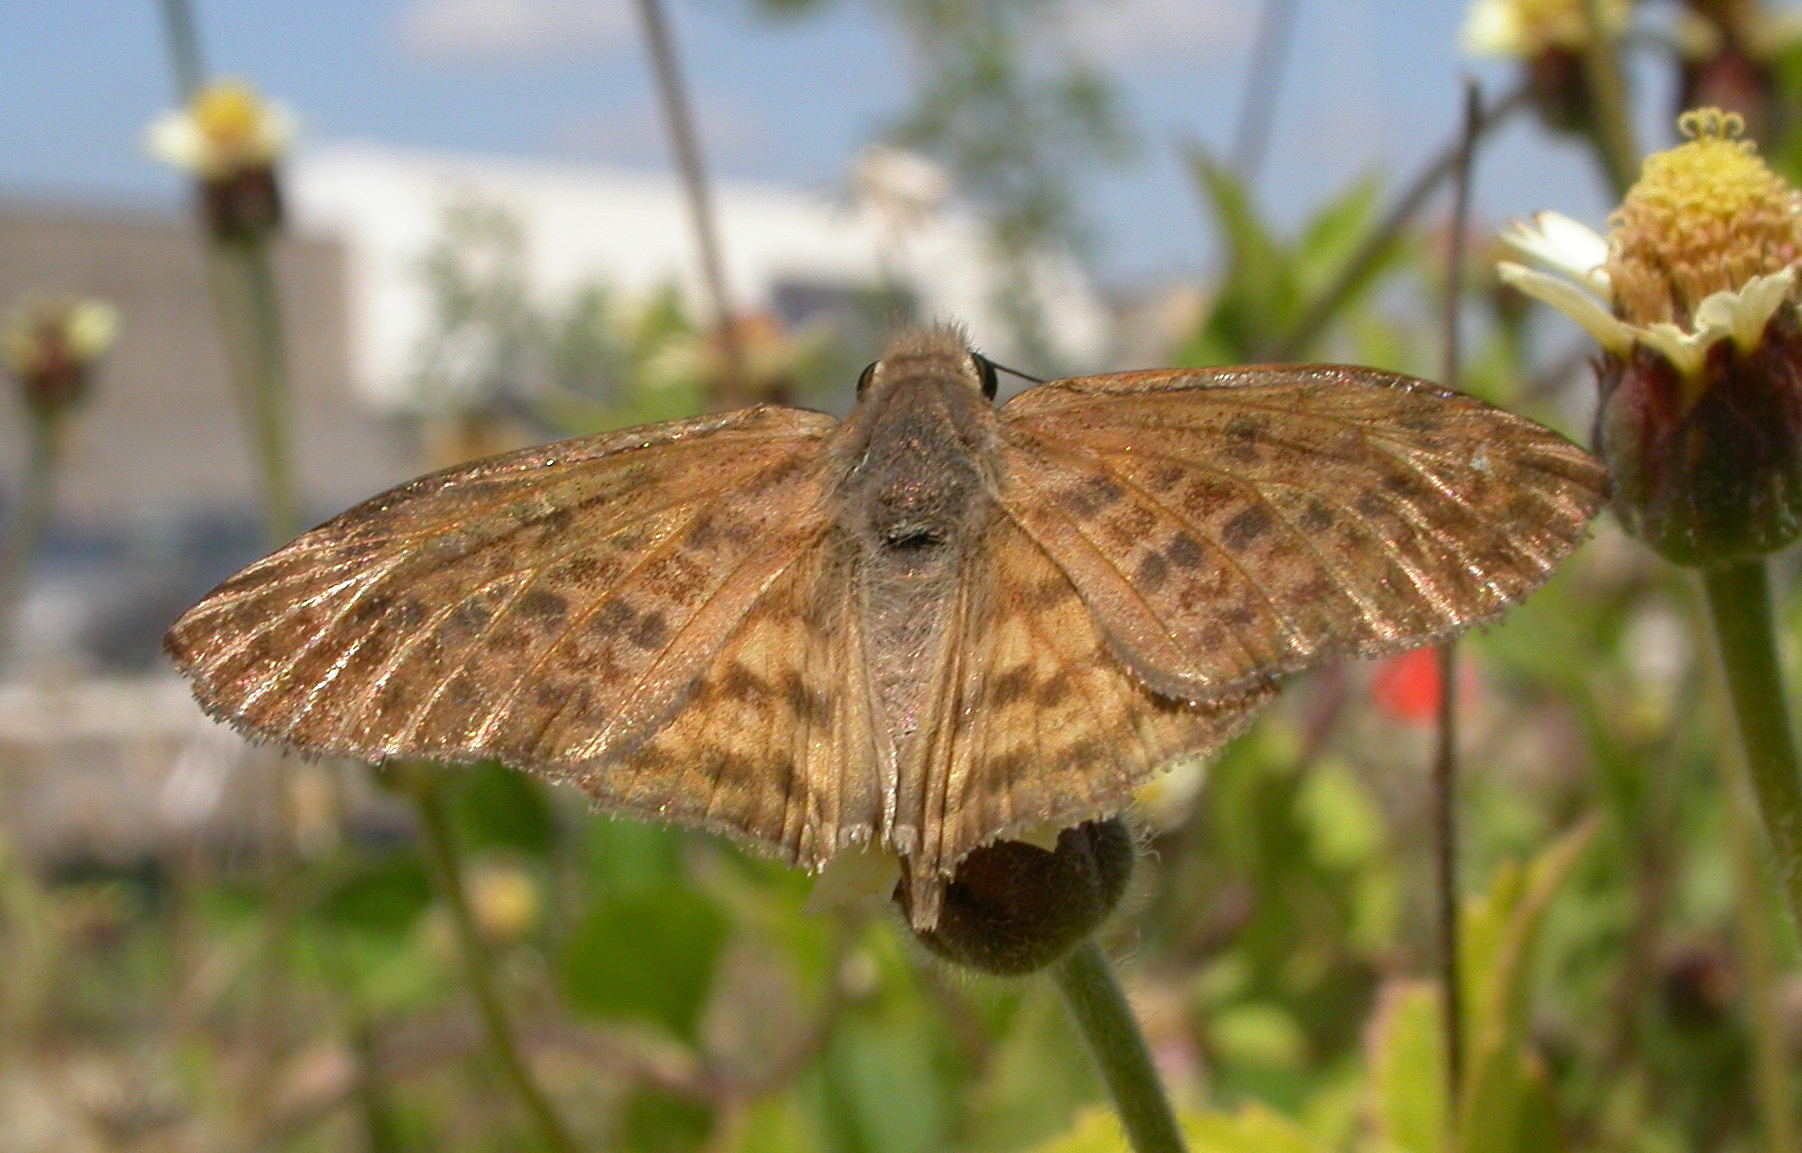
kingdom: Animalia
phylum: Arthropoda
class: Insecta
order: Lepidoptera
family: Hesperiidae
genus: Timochares
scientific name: Timochares ruptifasciata
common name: Brown-banded skipper
